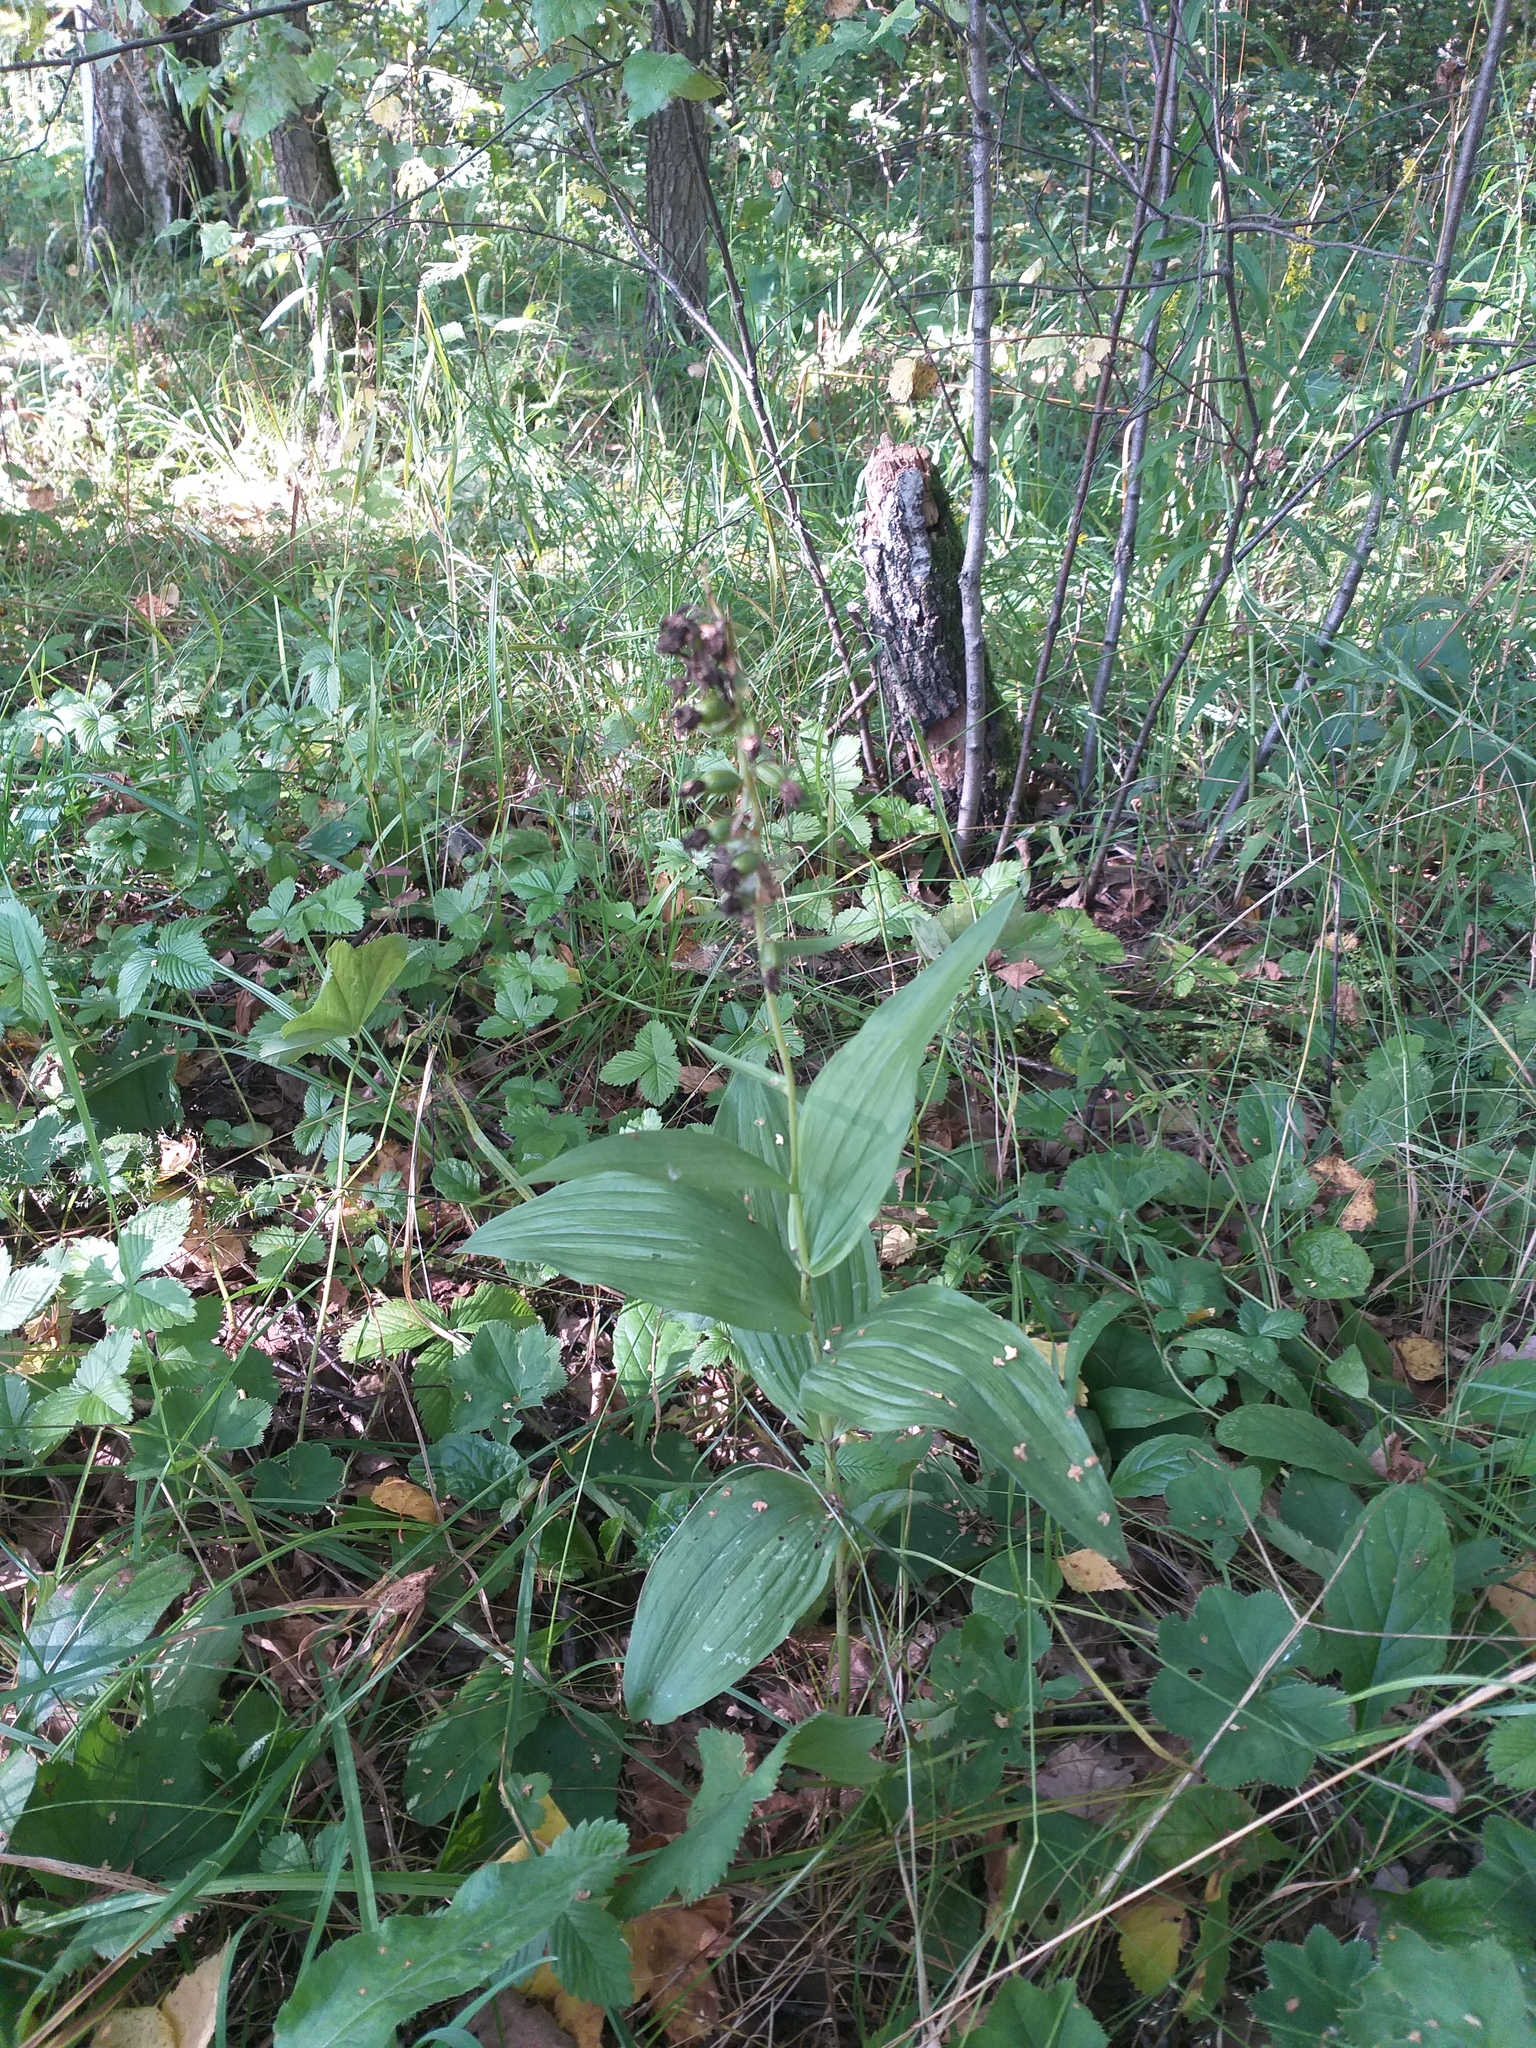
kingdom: Plantae
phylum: Tracheophyta
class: Liliopsida
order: Asparagales
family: Orchidaceae
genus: Epipactis
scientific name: Epipactis helleborine
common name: Broad-leaved helleborine
